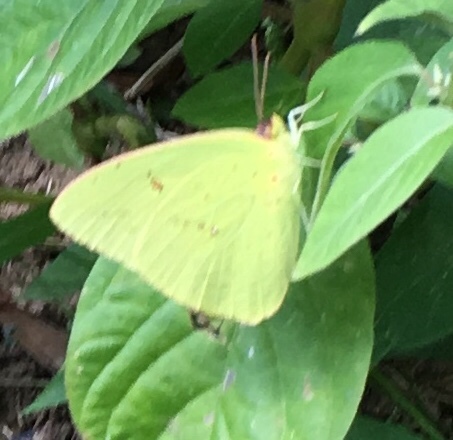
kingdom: Animalia
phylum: Arthropoda
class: Insecta
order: Lepidoptera
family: Pieridae
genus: Phoebis
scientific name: Phoebis sennae
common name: Cloudless sulphur
